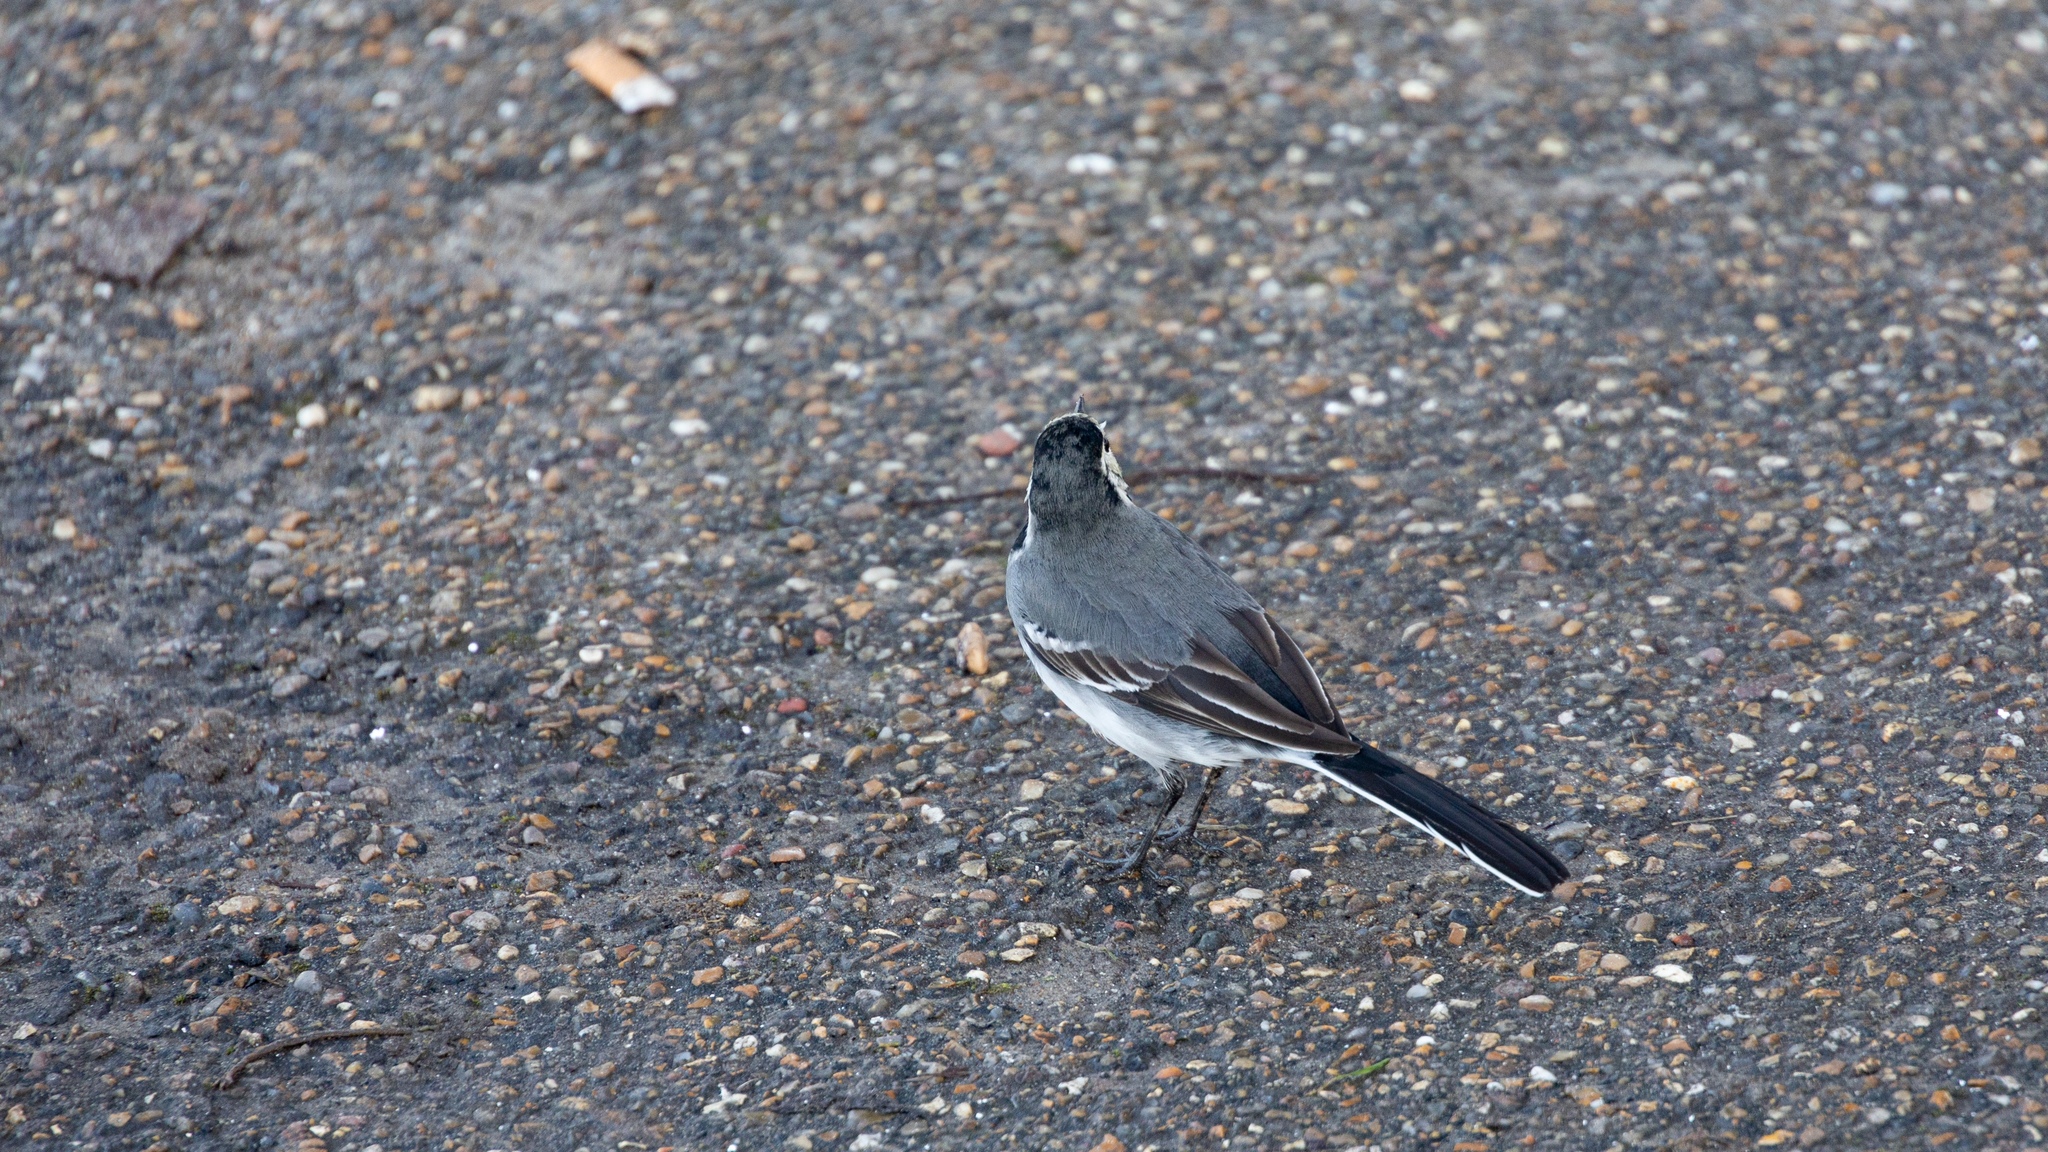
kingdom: Animalia
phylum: Chordata
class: Aves
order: Passeriformes
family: Motacillidae
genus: Motacilla
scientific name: Motacilla alba
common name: White wagtail
